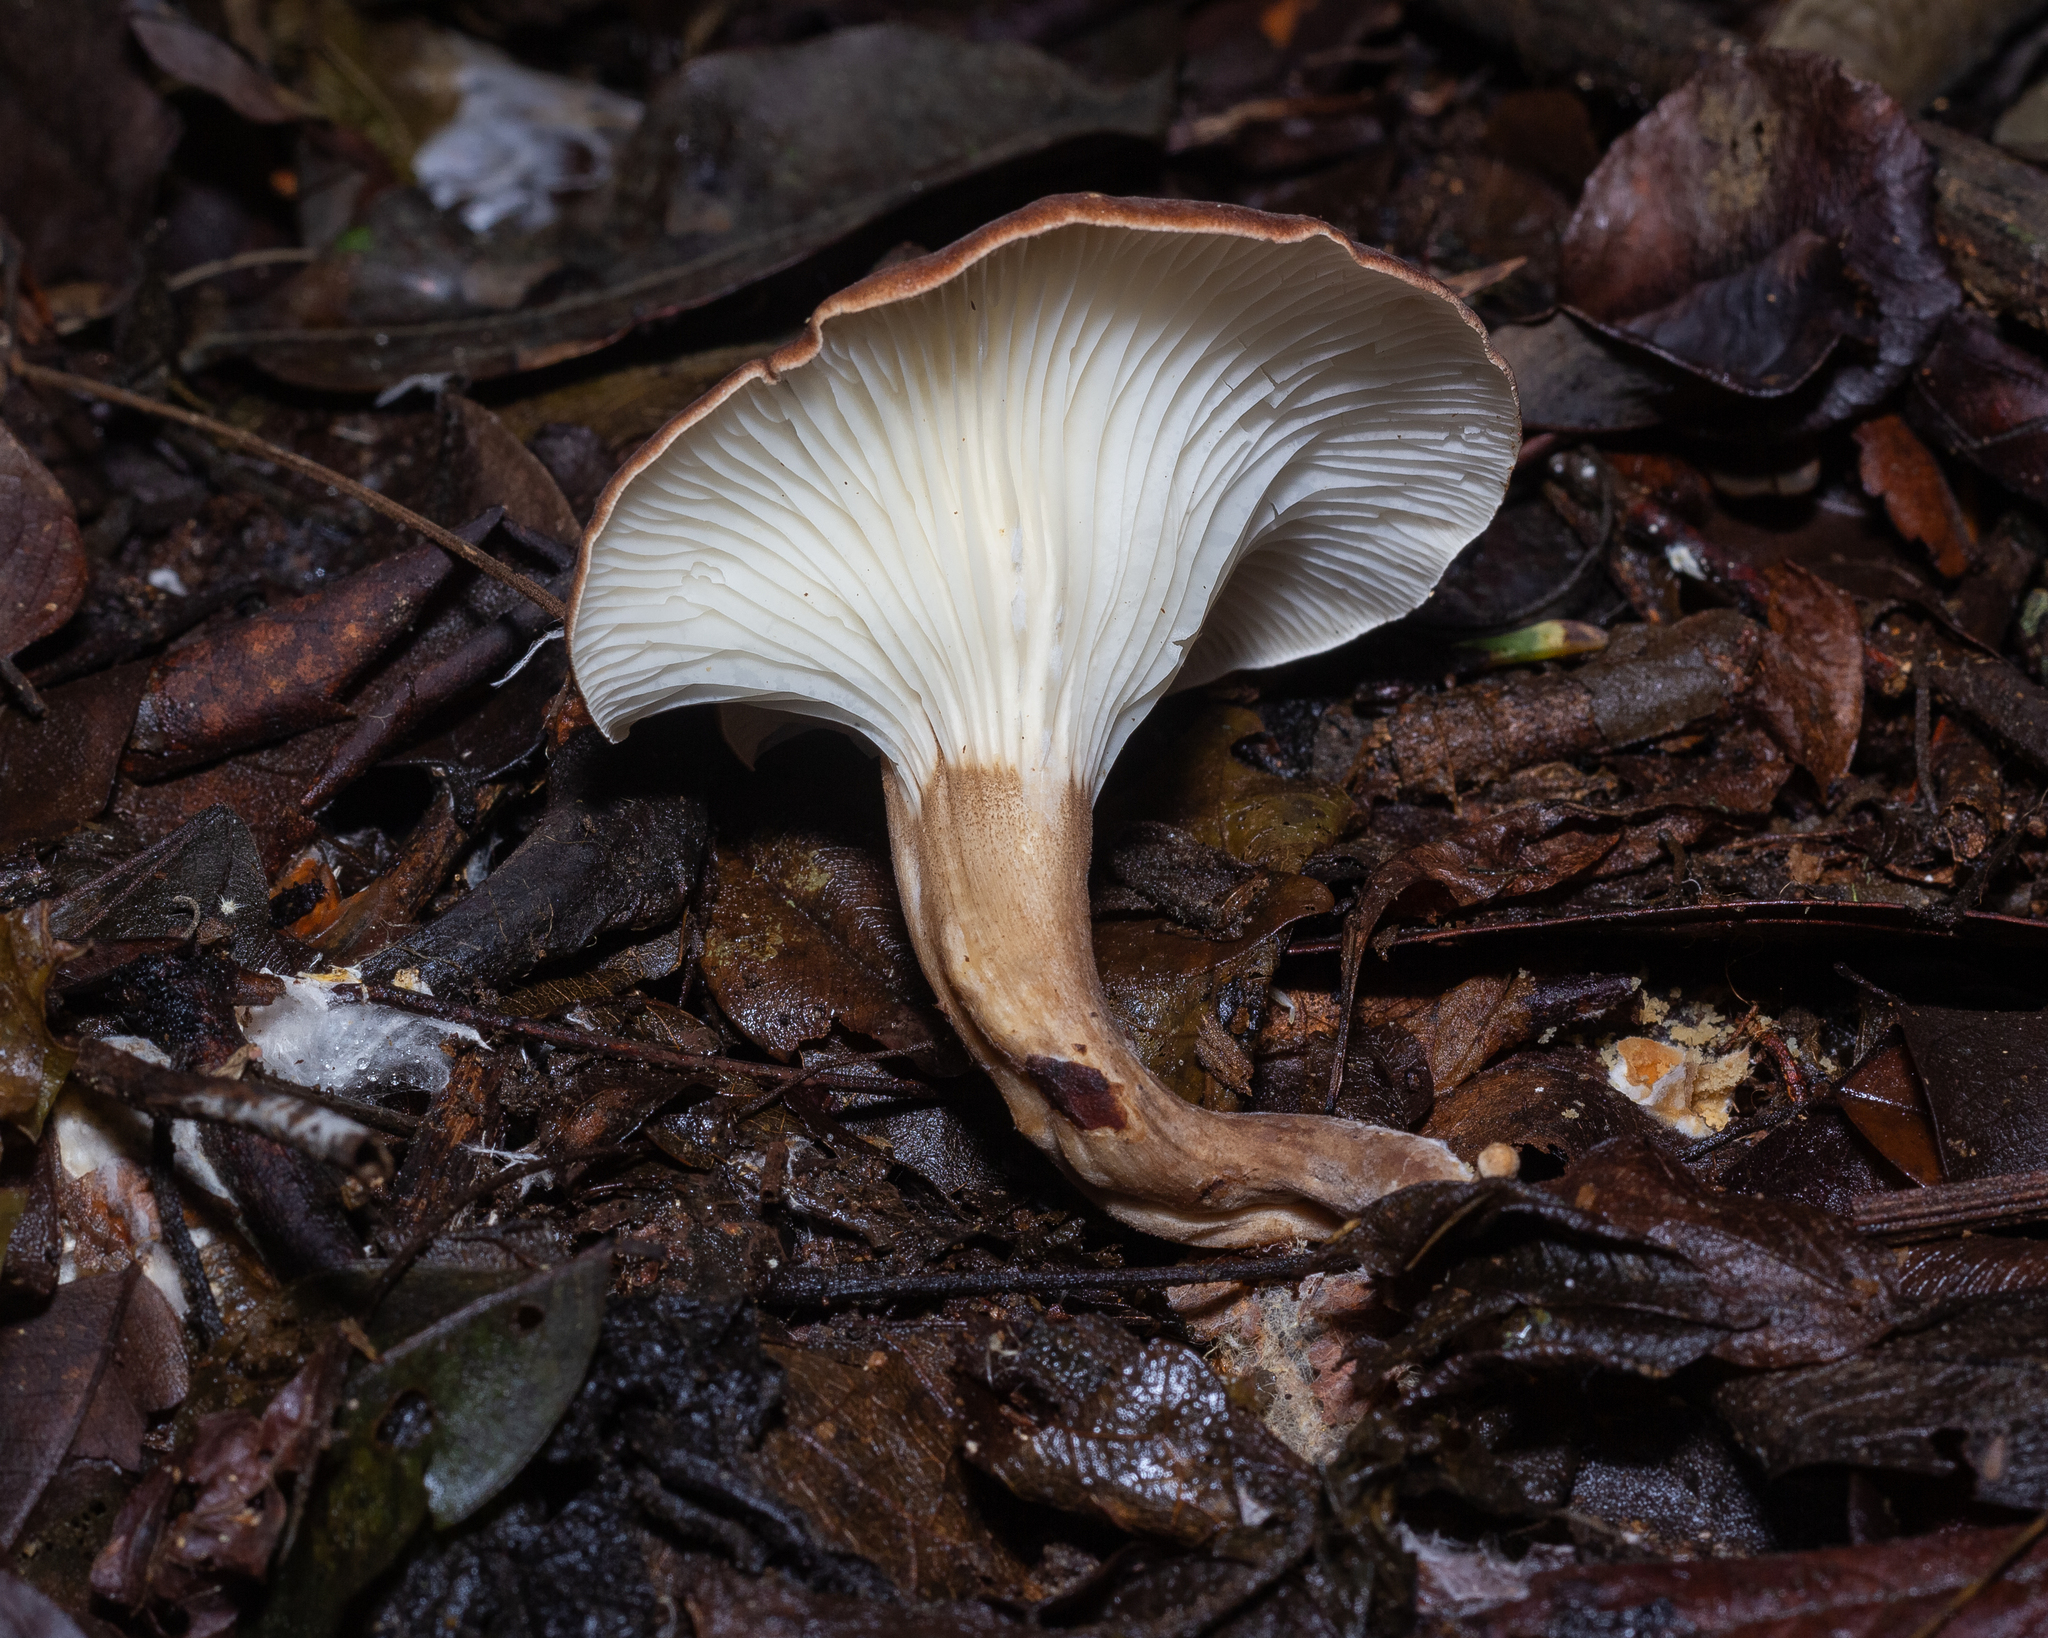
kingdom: Fungi
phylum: Basidiomycota
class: Agaricomycetes
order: Agaricales
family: Tricholomataceae
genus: Lulesia
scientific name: Lulesia densifolia
